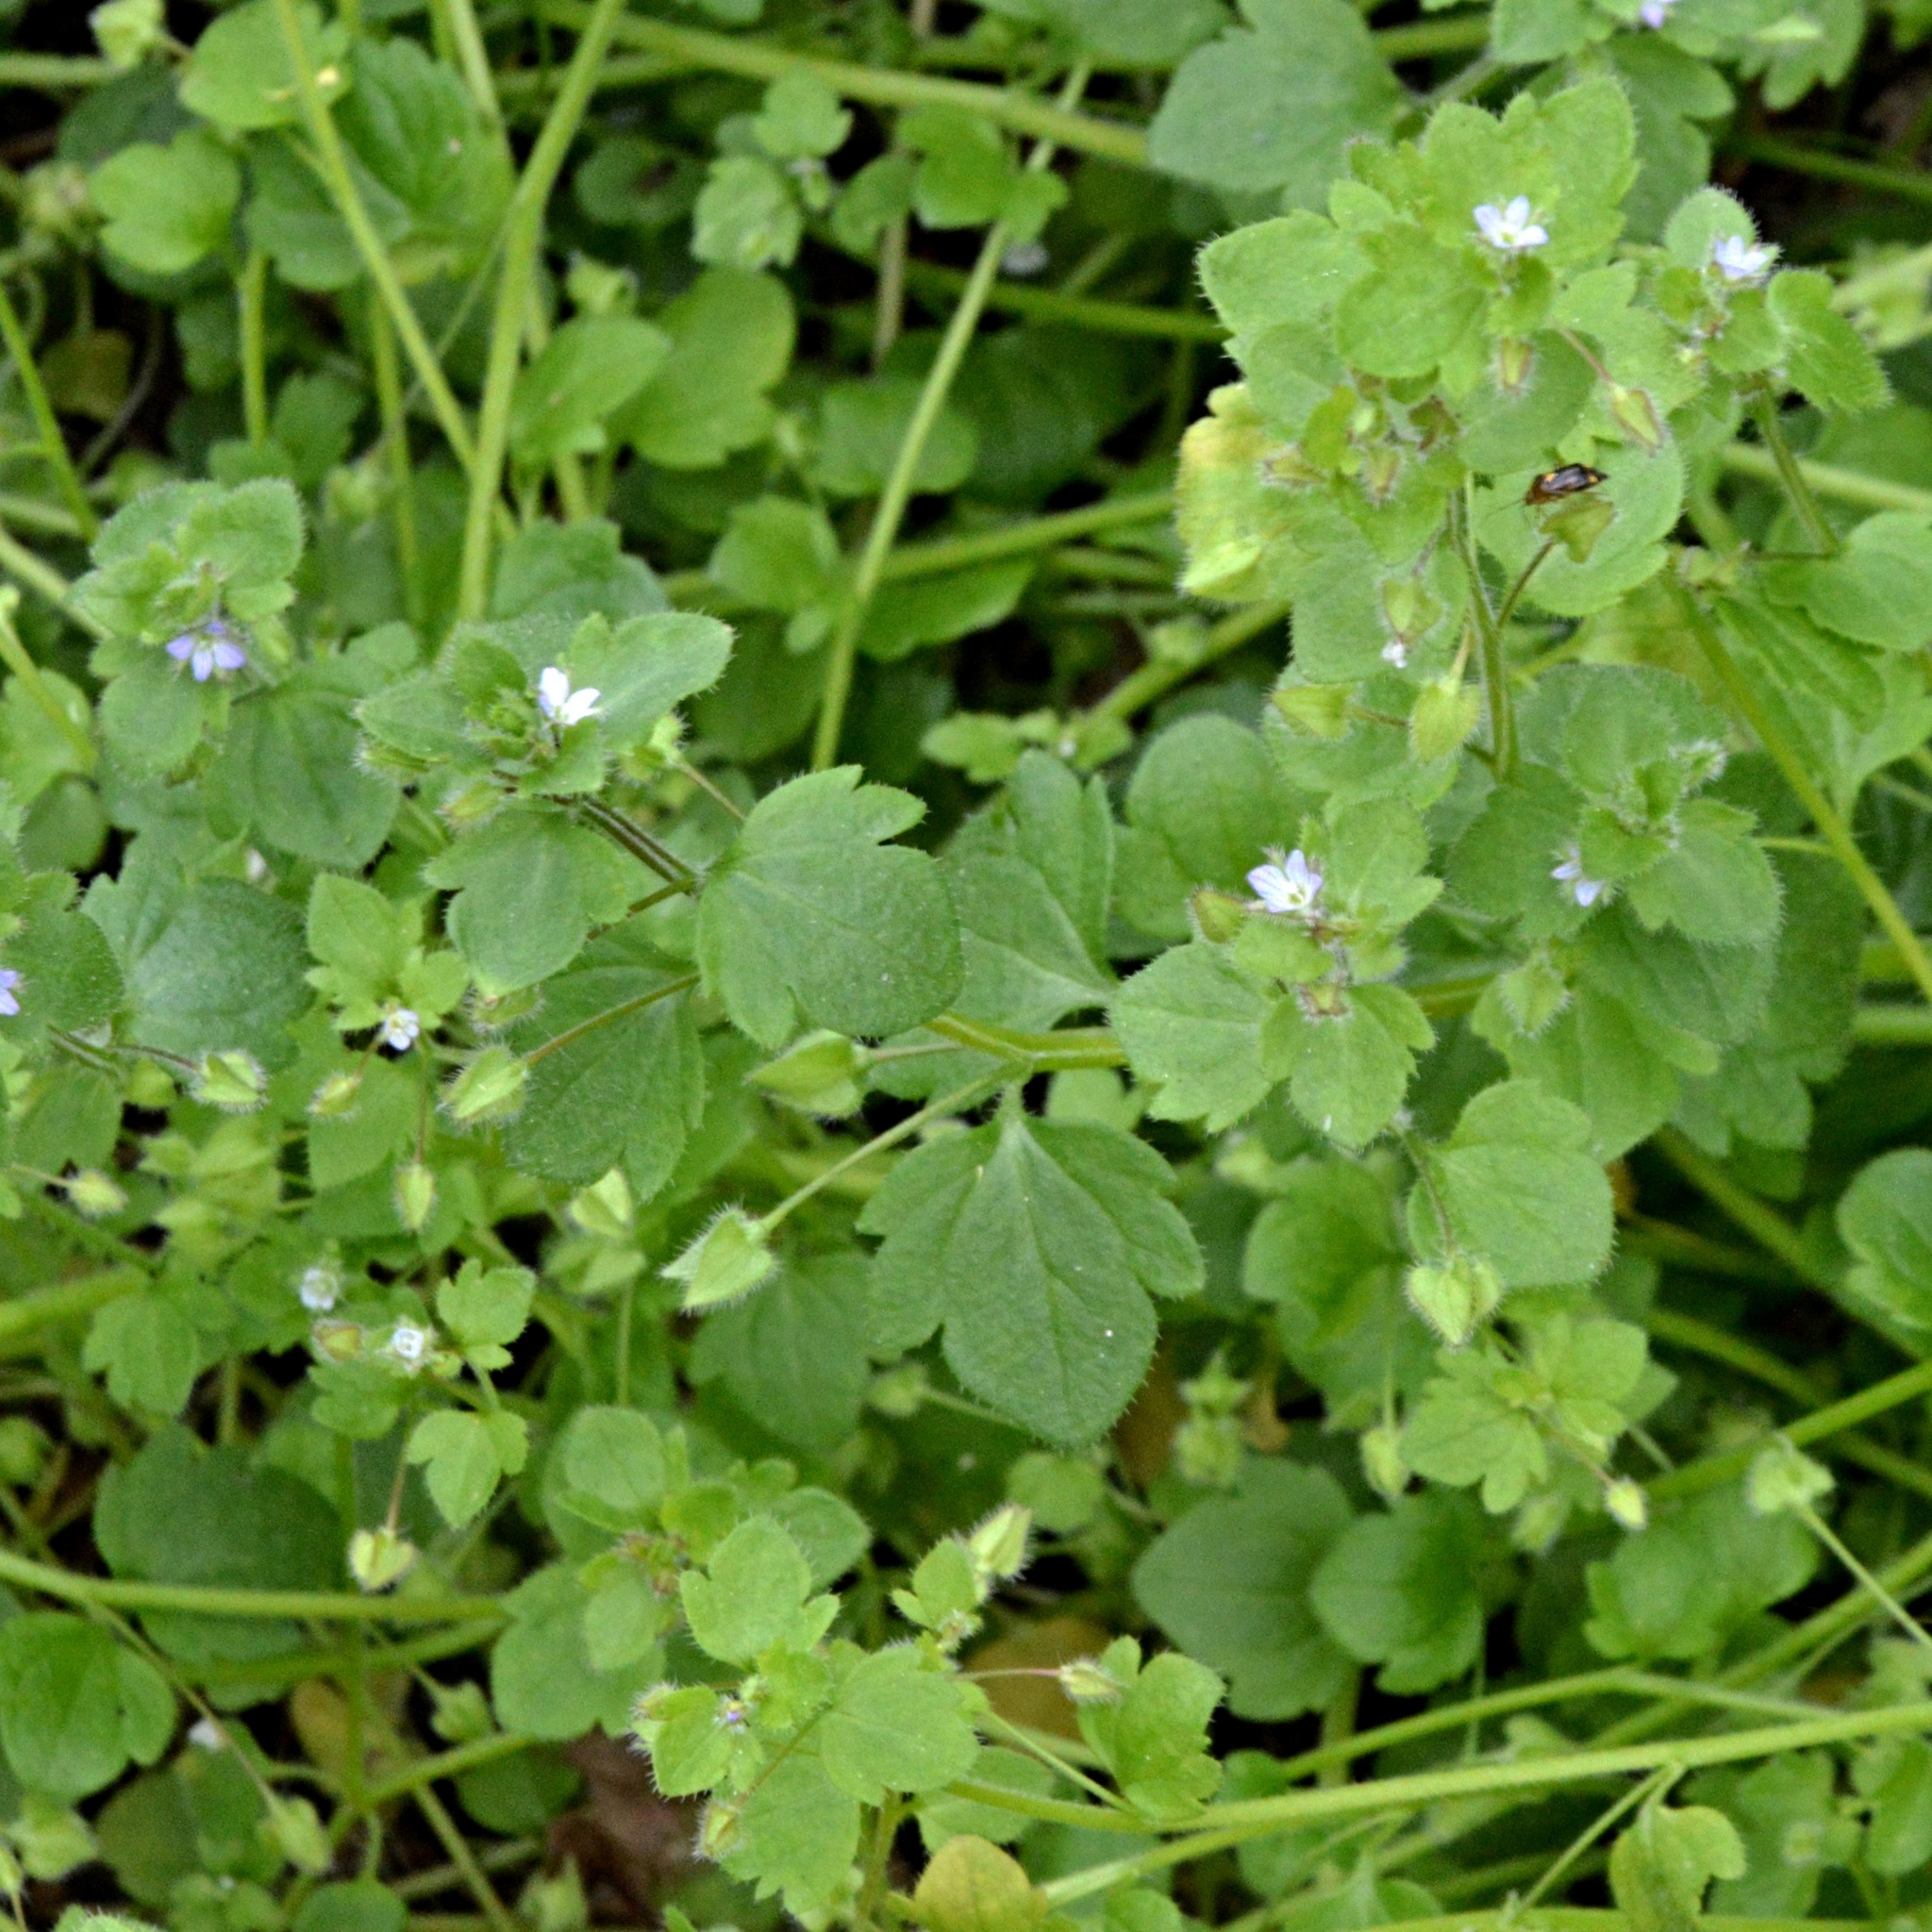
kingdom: Plantae
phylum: Tracheophyta
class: Magnoliopsida
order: Lamiales
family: Plantaginaceae
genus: Veronica
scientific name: Veronica sublobata
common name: False ivy-leaved speedwell
